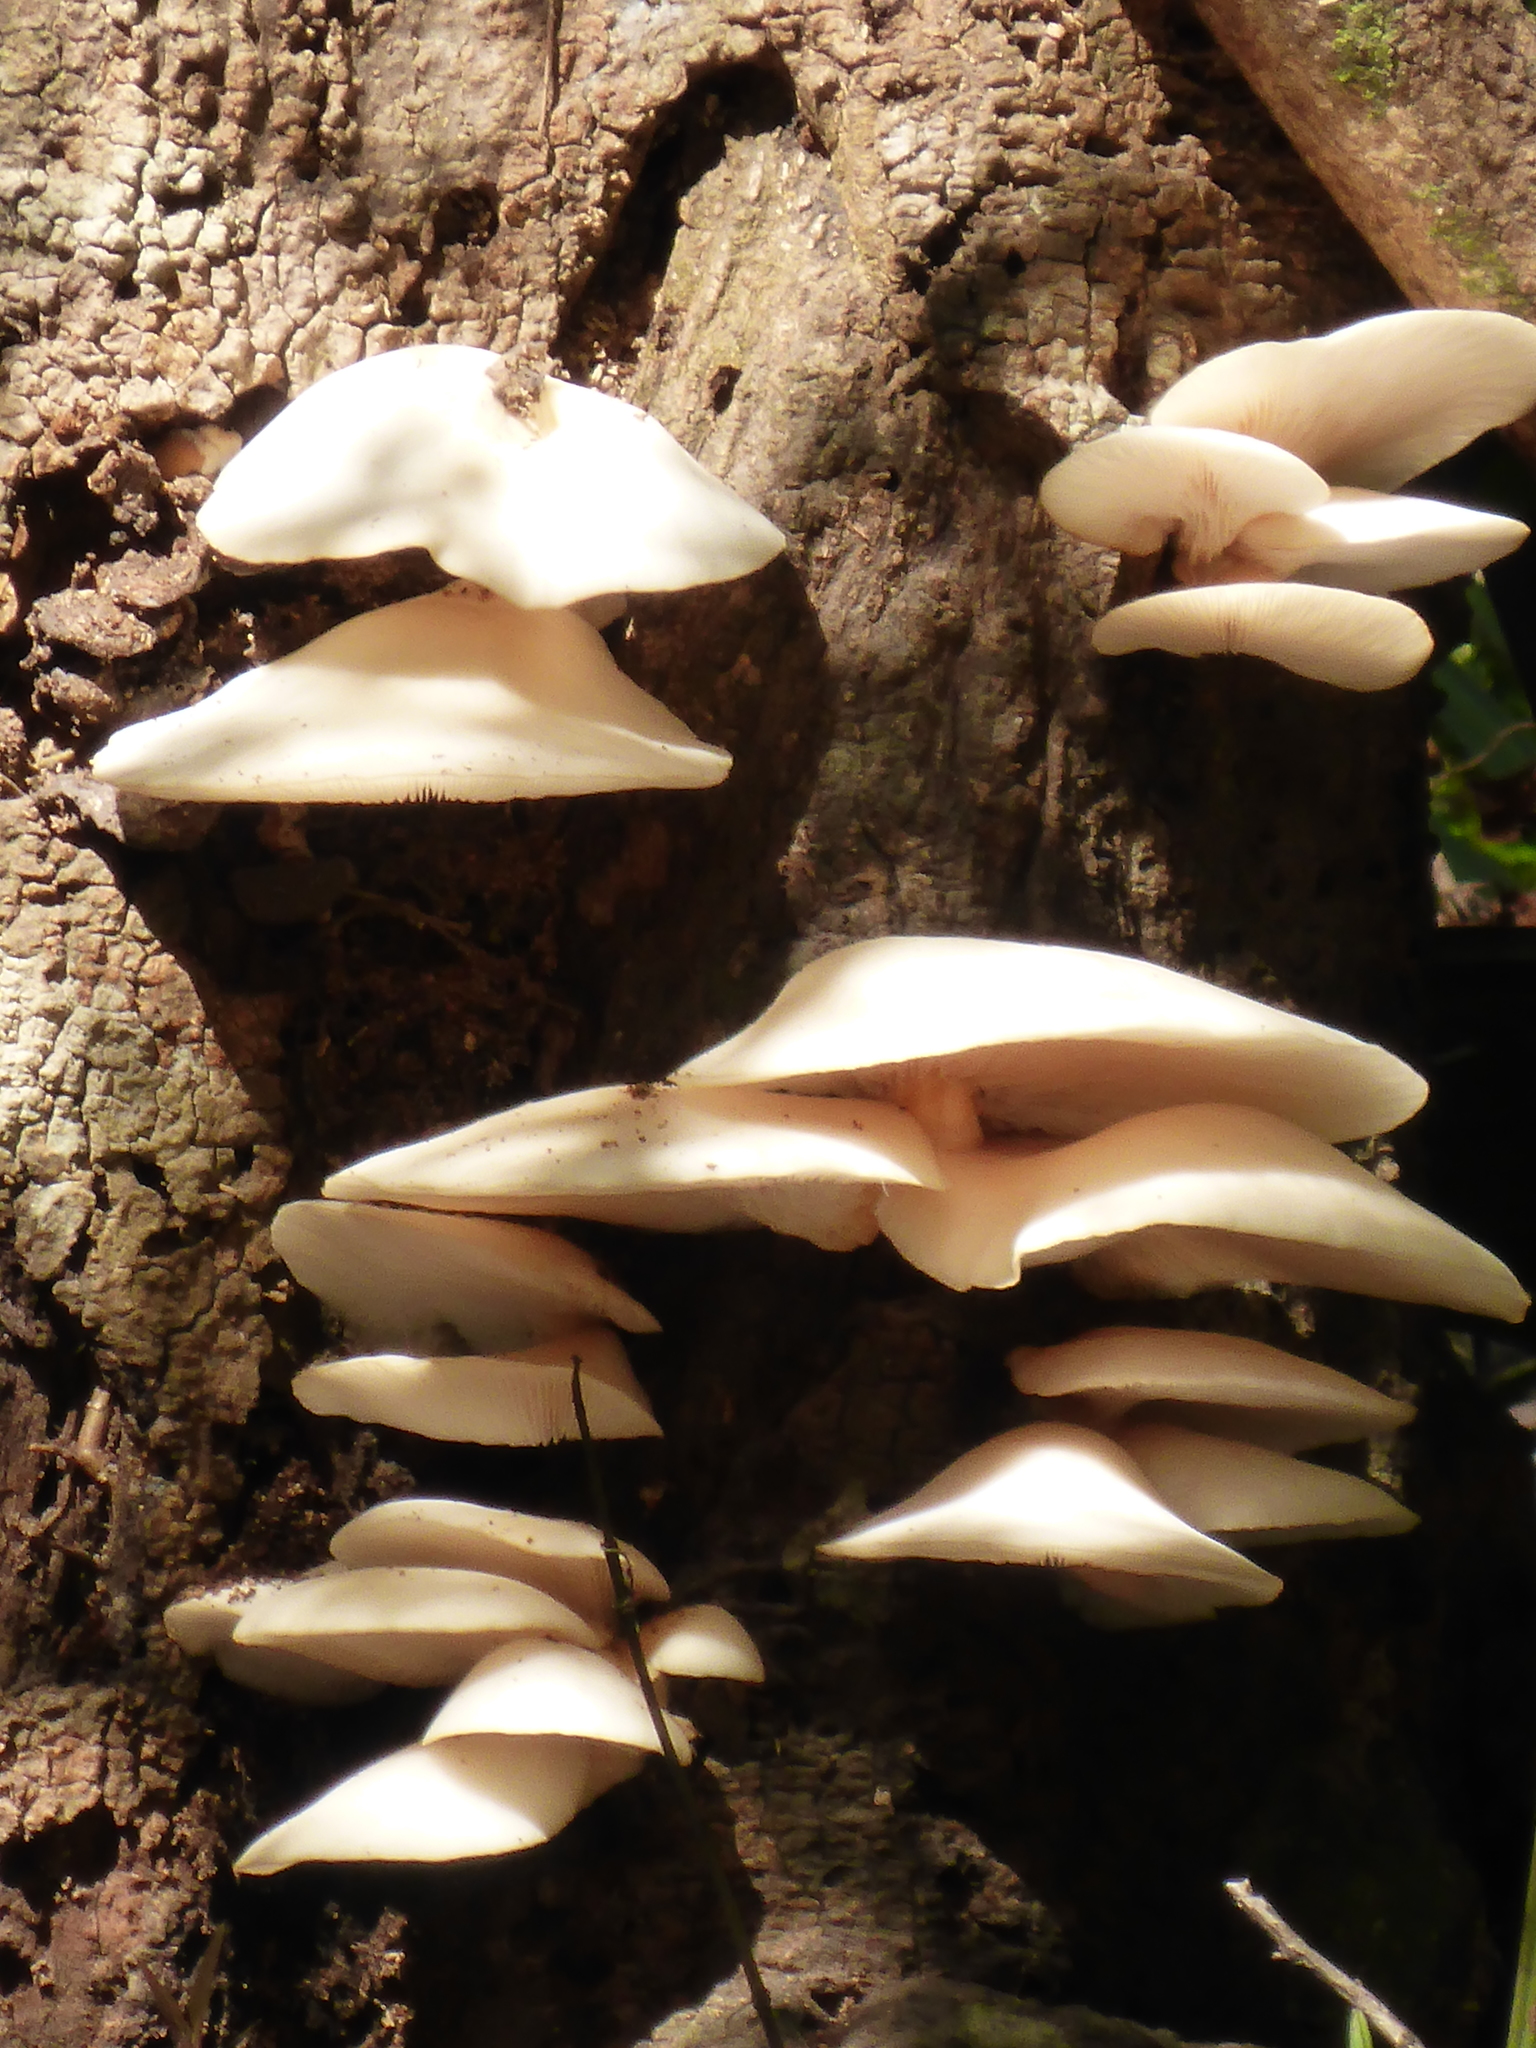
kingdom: Fungi
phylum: Basidiomycota
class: Agaricomycetes
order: Agaricales
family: Pleurotaceae
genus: Pleurotus
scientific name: Pleurotus ostreatus
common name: Oyster mushroom
